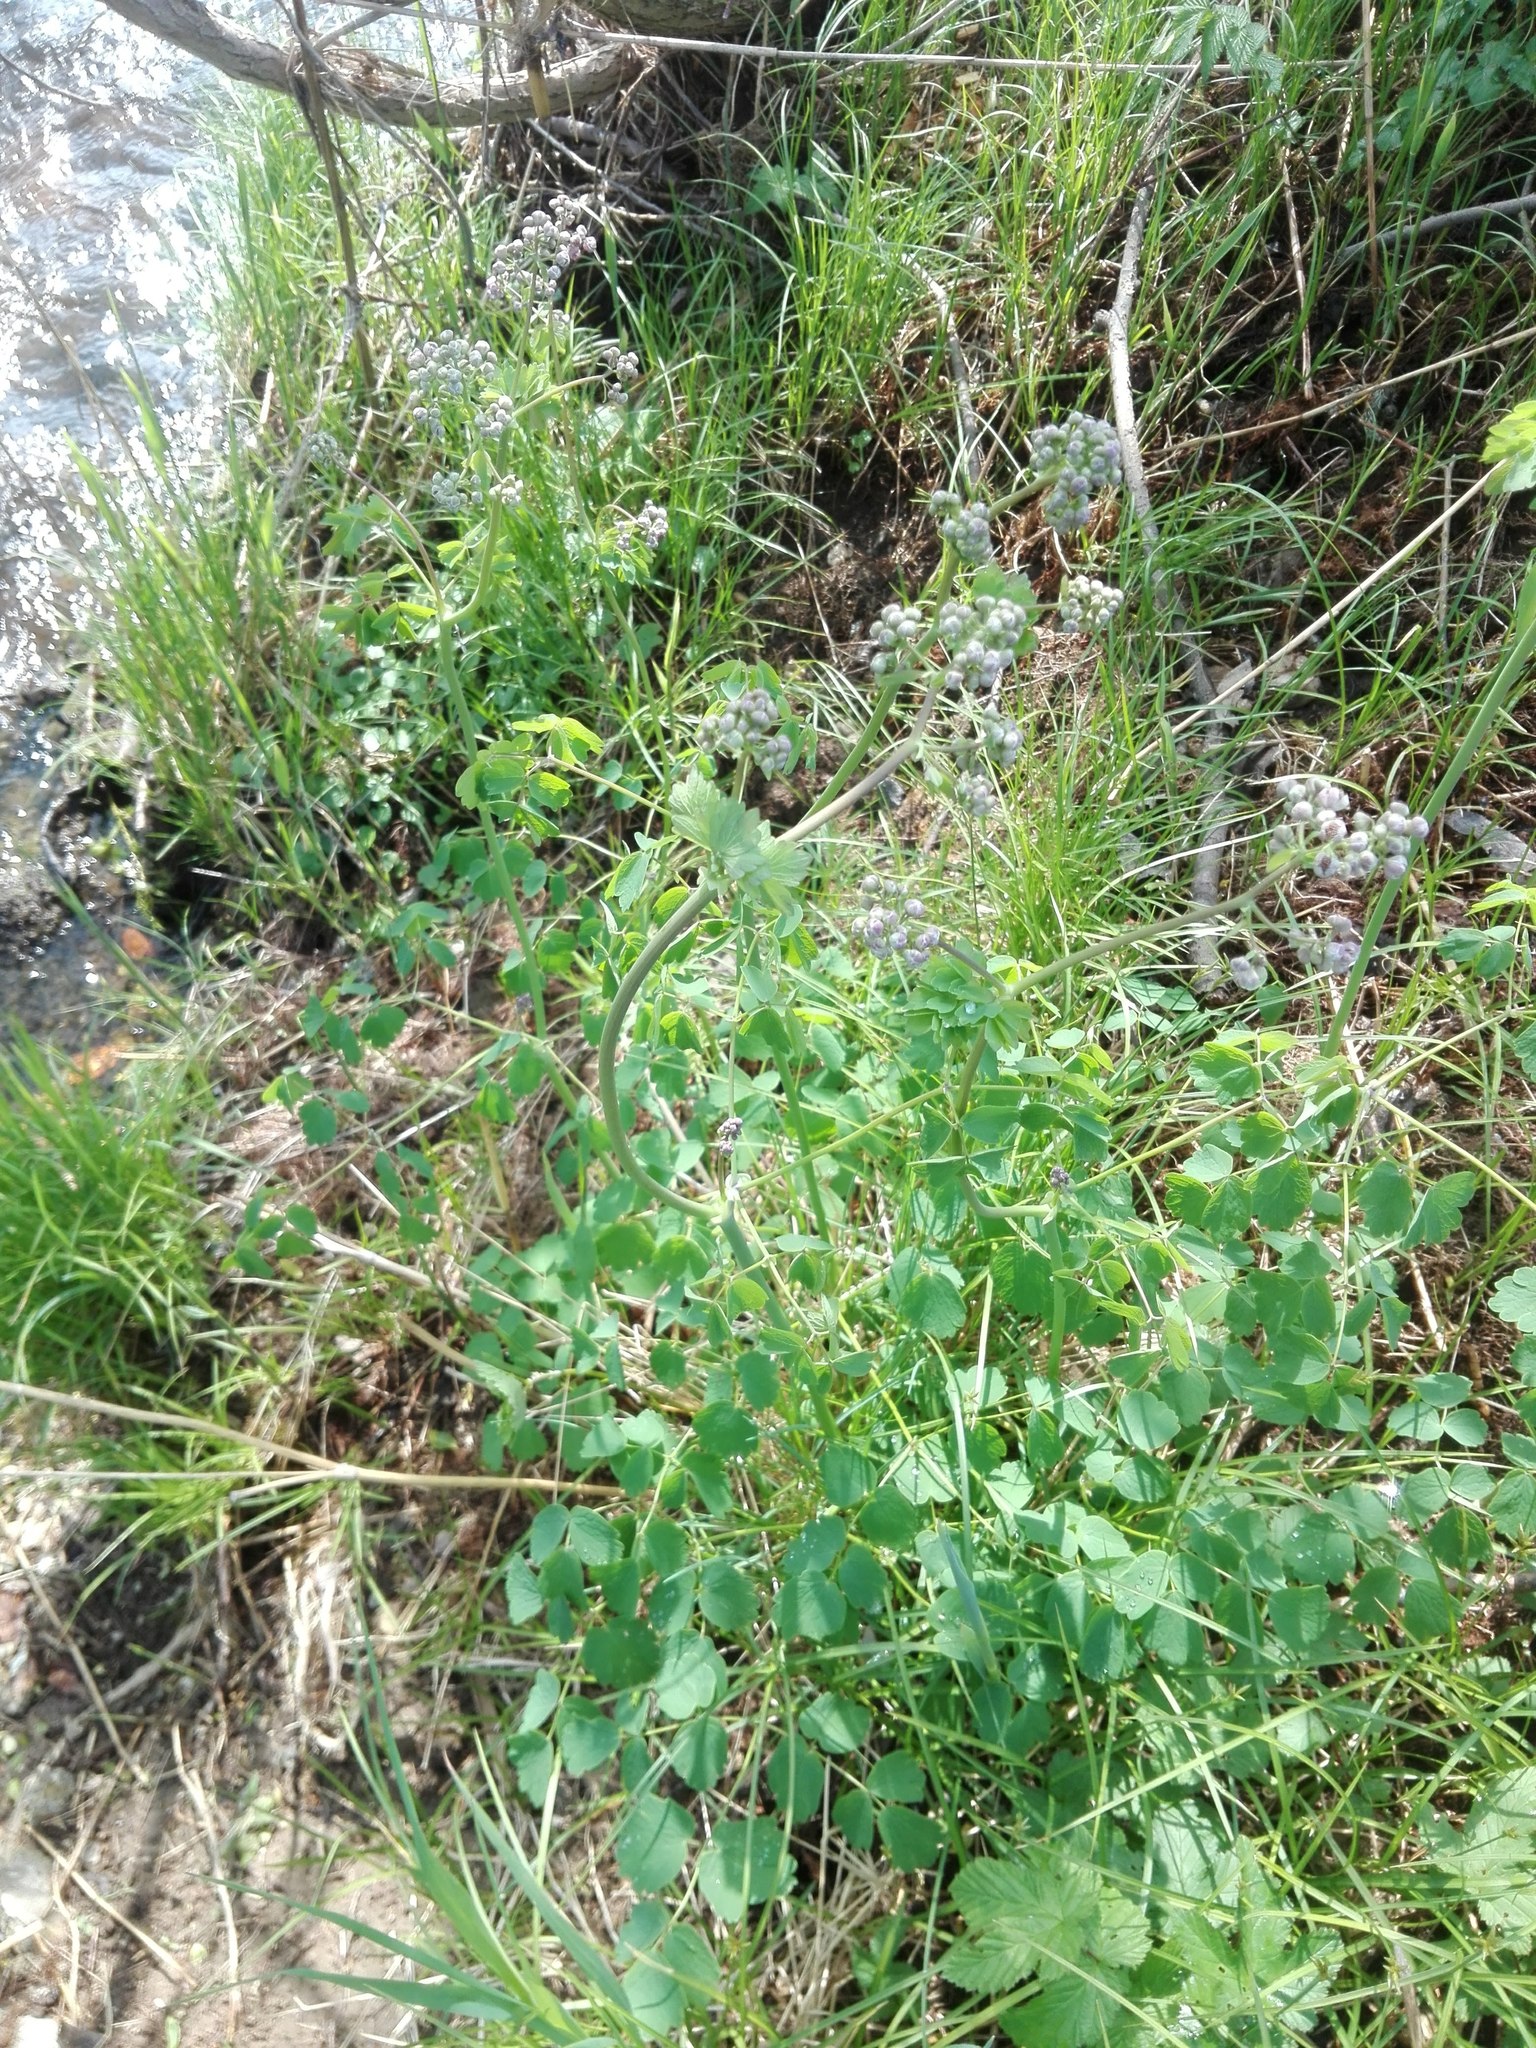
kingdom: Plantae
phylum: Tracheophyta
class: Magnoliopsida
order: Ranunculales
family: Ranunculaceae
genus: Thalictrum
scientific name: Thalictrum aquilegiifolium
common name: French meadow-rue
